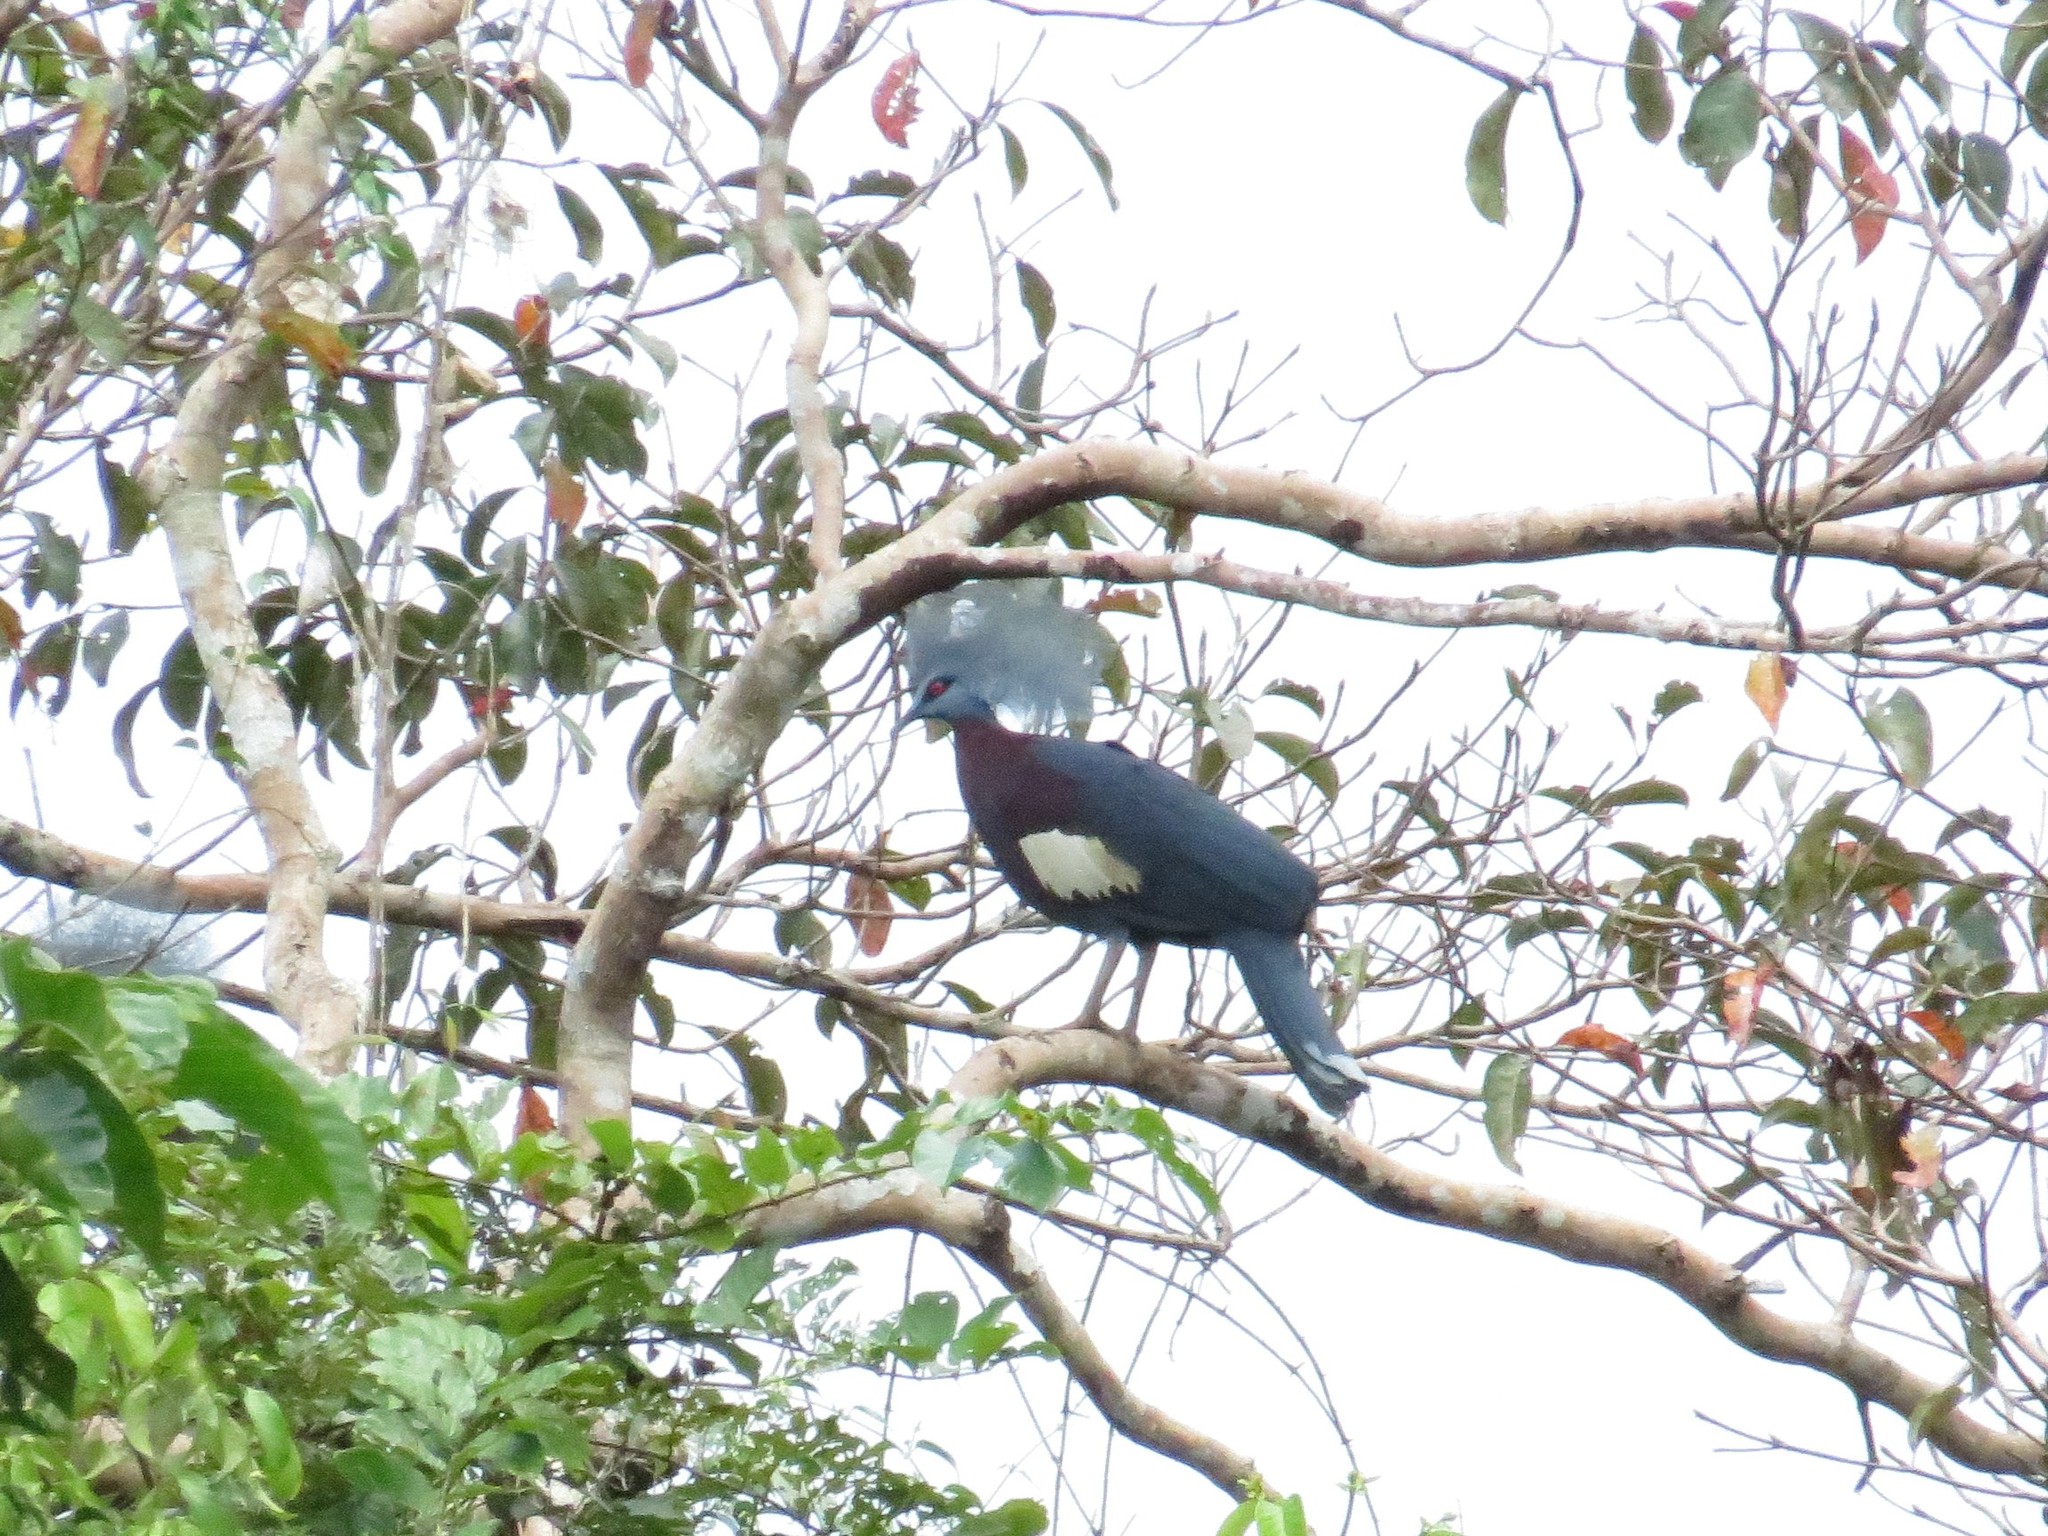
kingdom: Animalia
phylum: Chordata
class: Aves
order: Columbiformes
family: Columbidae
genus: Goura
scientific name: Goura sclaterii
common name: Sclater's crowned pigeon
